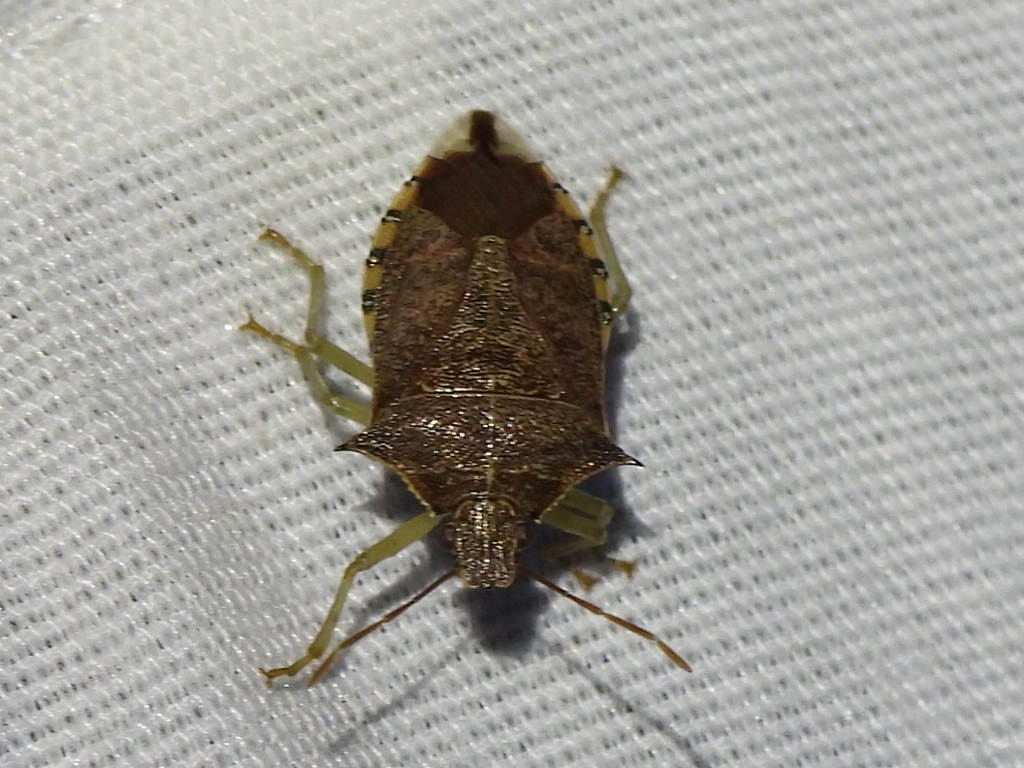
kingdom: Animalia
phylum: Arthropoda
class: Insecta
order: Hemiptera
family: Pentatomidae
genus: Podisus
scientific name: Podisus maculiventris
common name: Spined soldier bug
